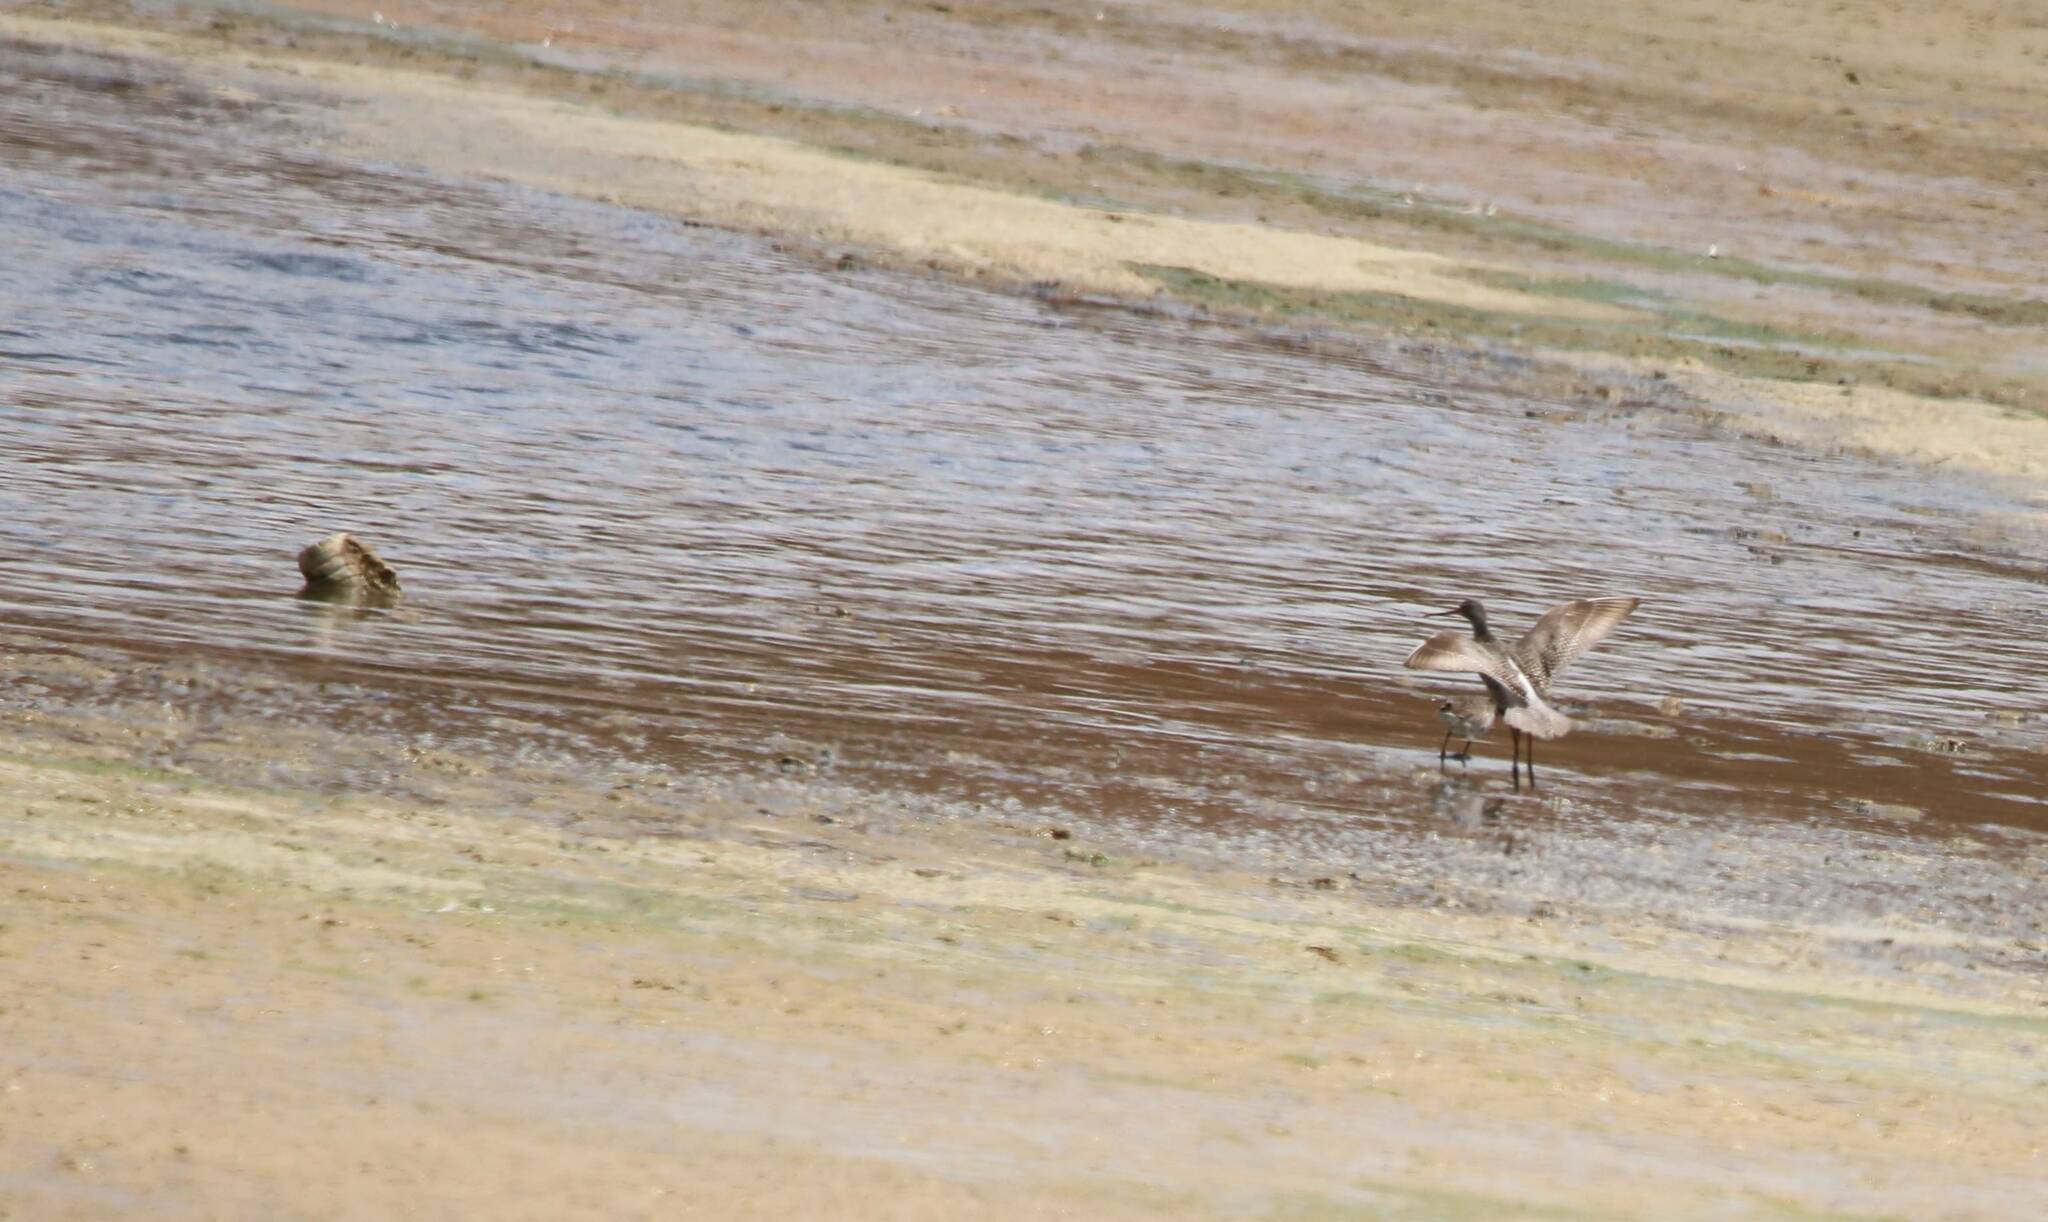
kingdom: Animalia
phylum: Chordata
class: Aves
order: Charadriiformes
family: Scolopacidae
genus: Tringa
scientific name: Tringa erythropus
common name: Spotted redshank
